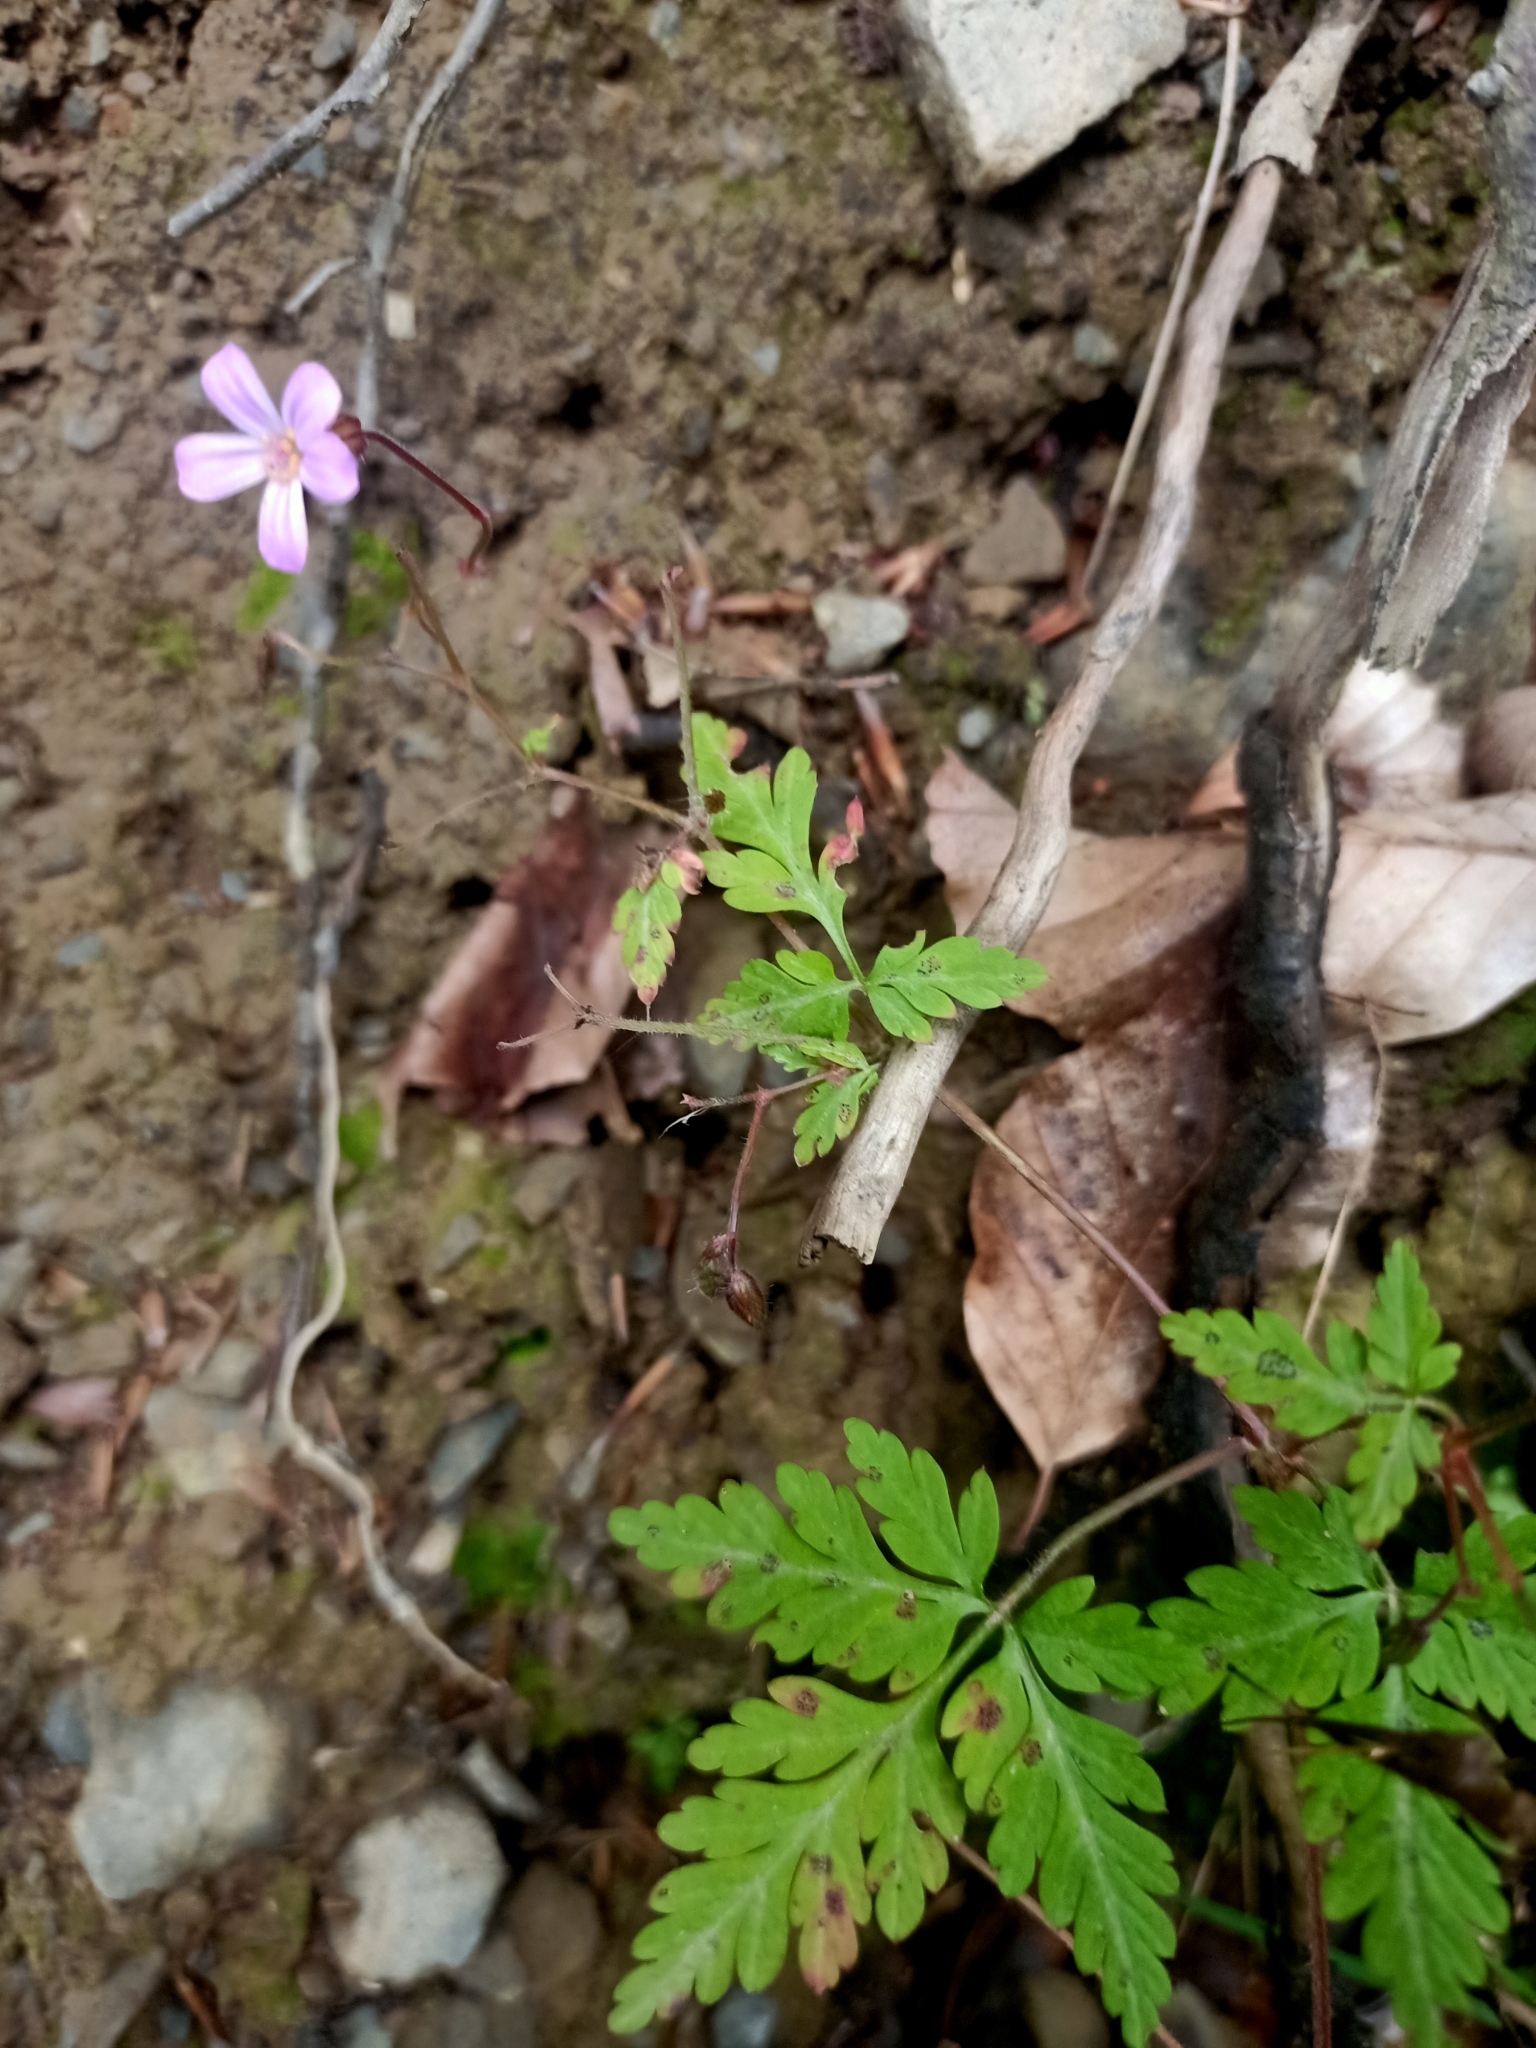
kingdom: Plantae
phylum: Tracheophyta
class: Magnoliopsida
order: Geraniales
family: Geraniaceae
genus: Geranium
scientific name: Geranium robertianum
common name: Herb-robert
